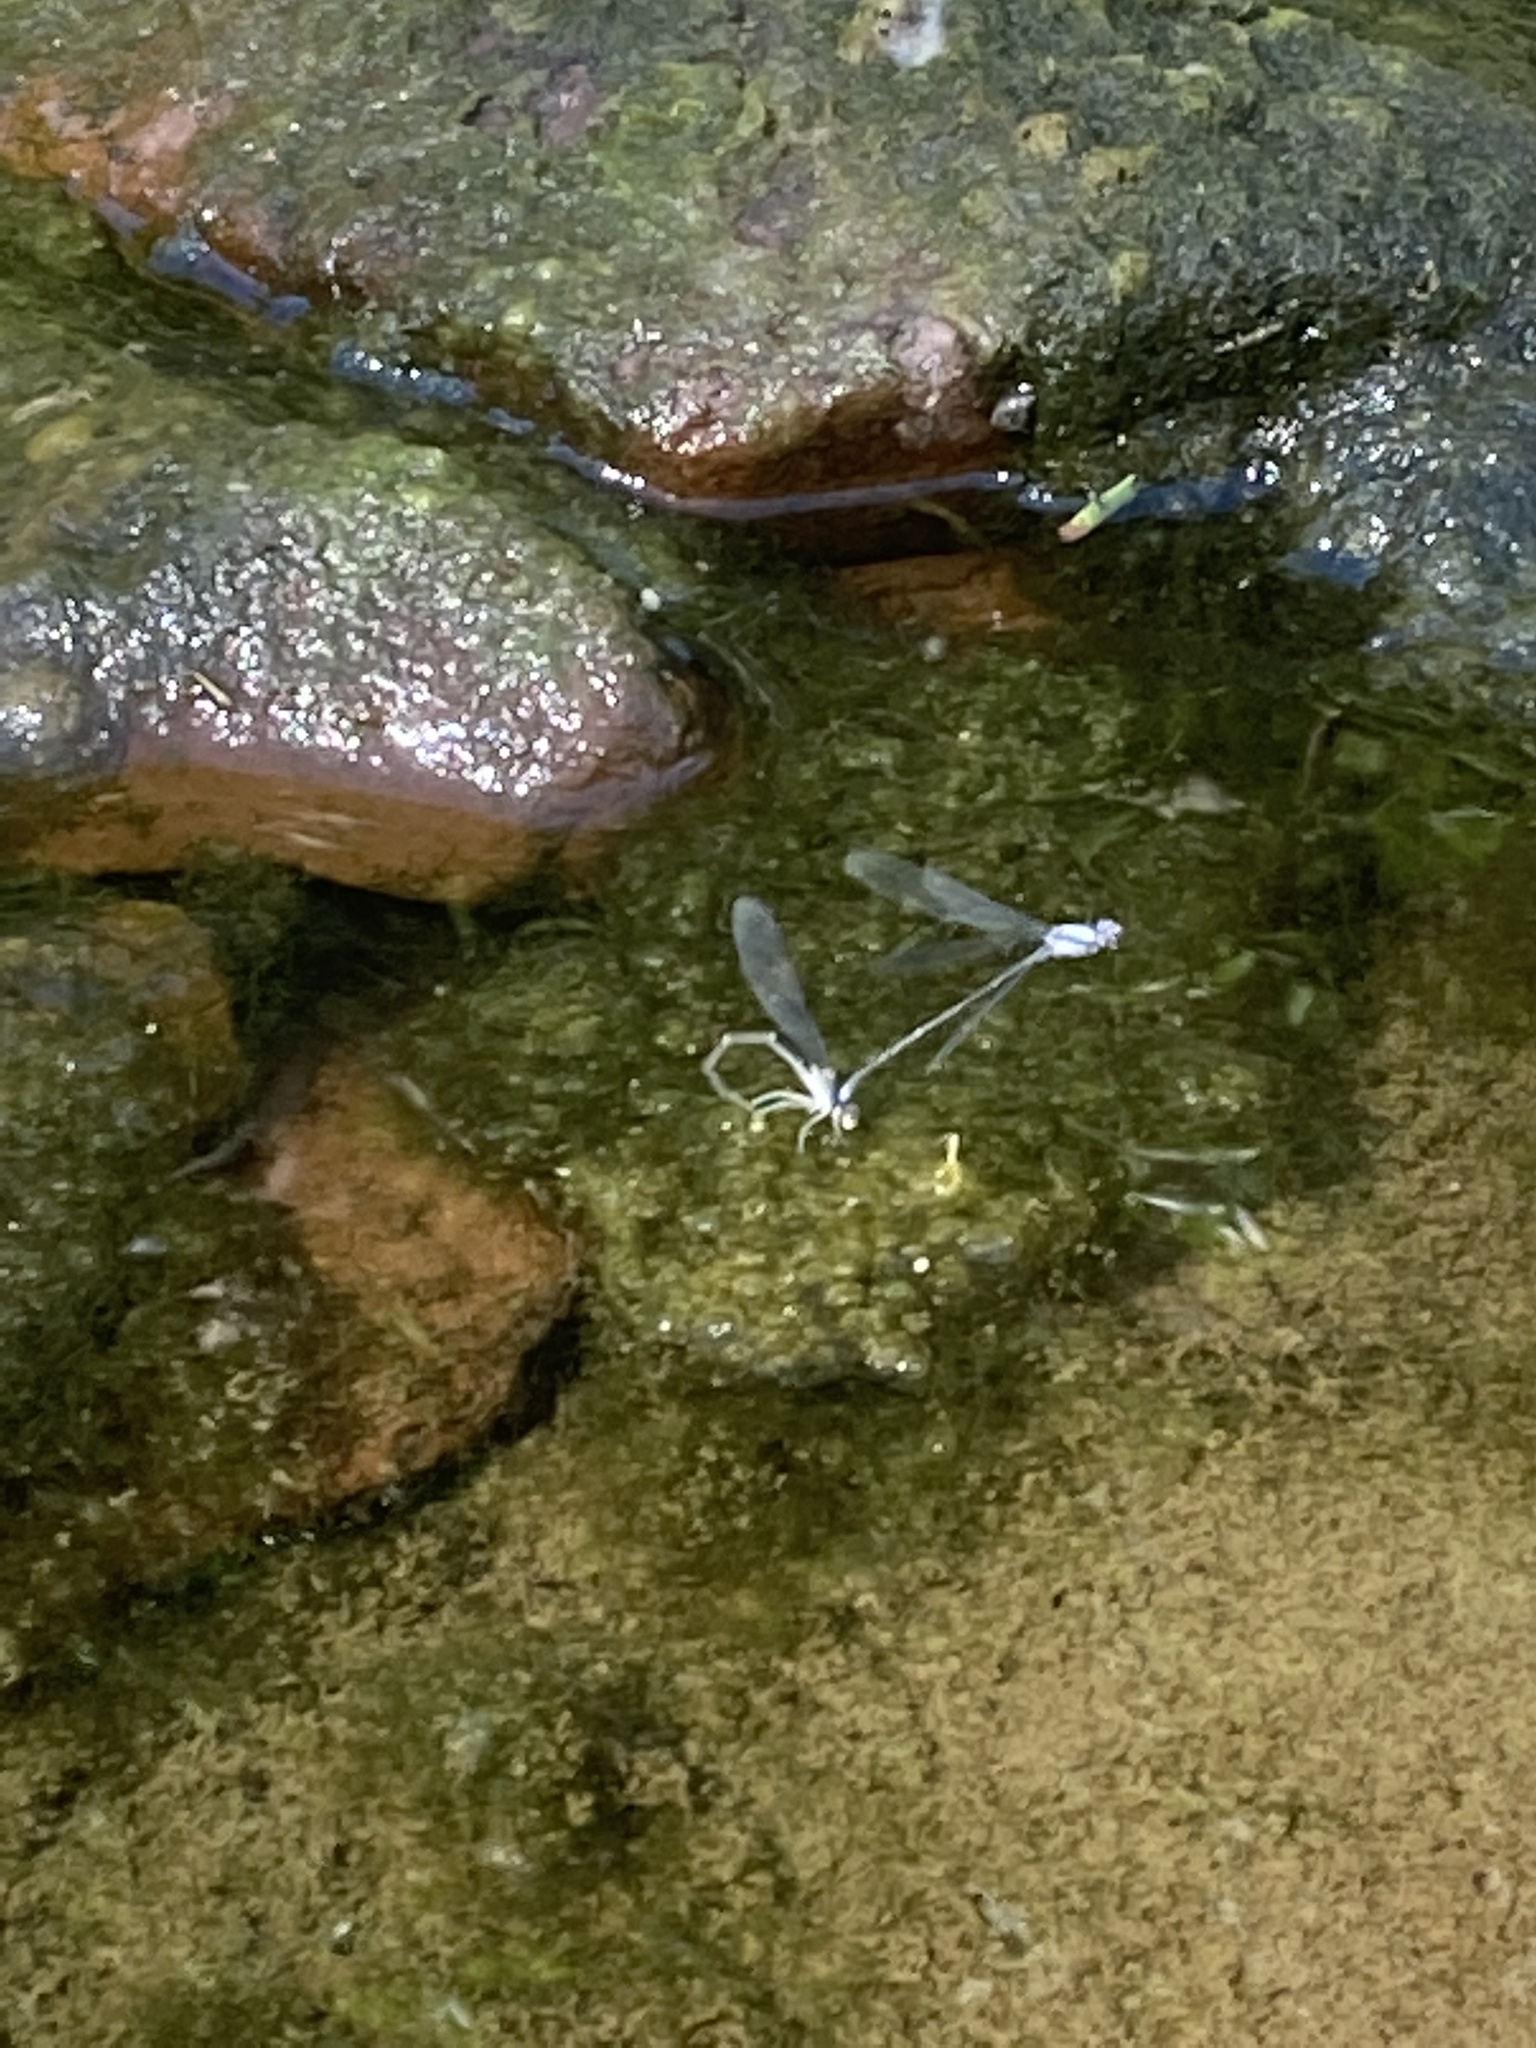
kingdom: Animalia
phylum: Arthropoda
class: Insecta
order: Odonata
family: Coenagrionidae
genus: Argia
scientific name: Argia moesta
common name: Powdered dancer
